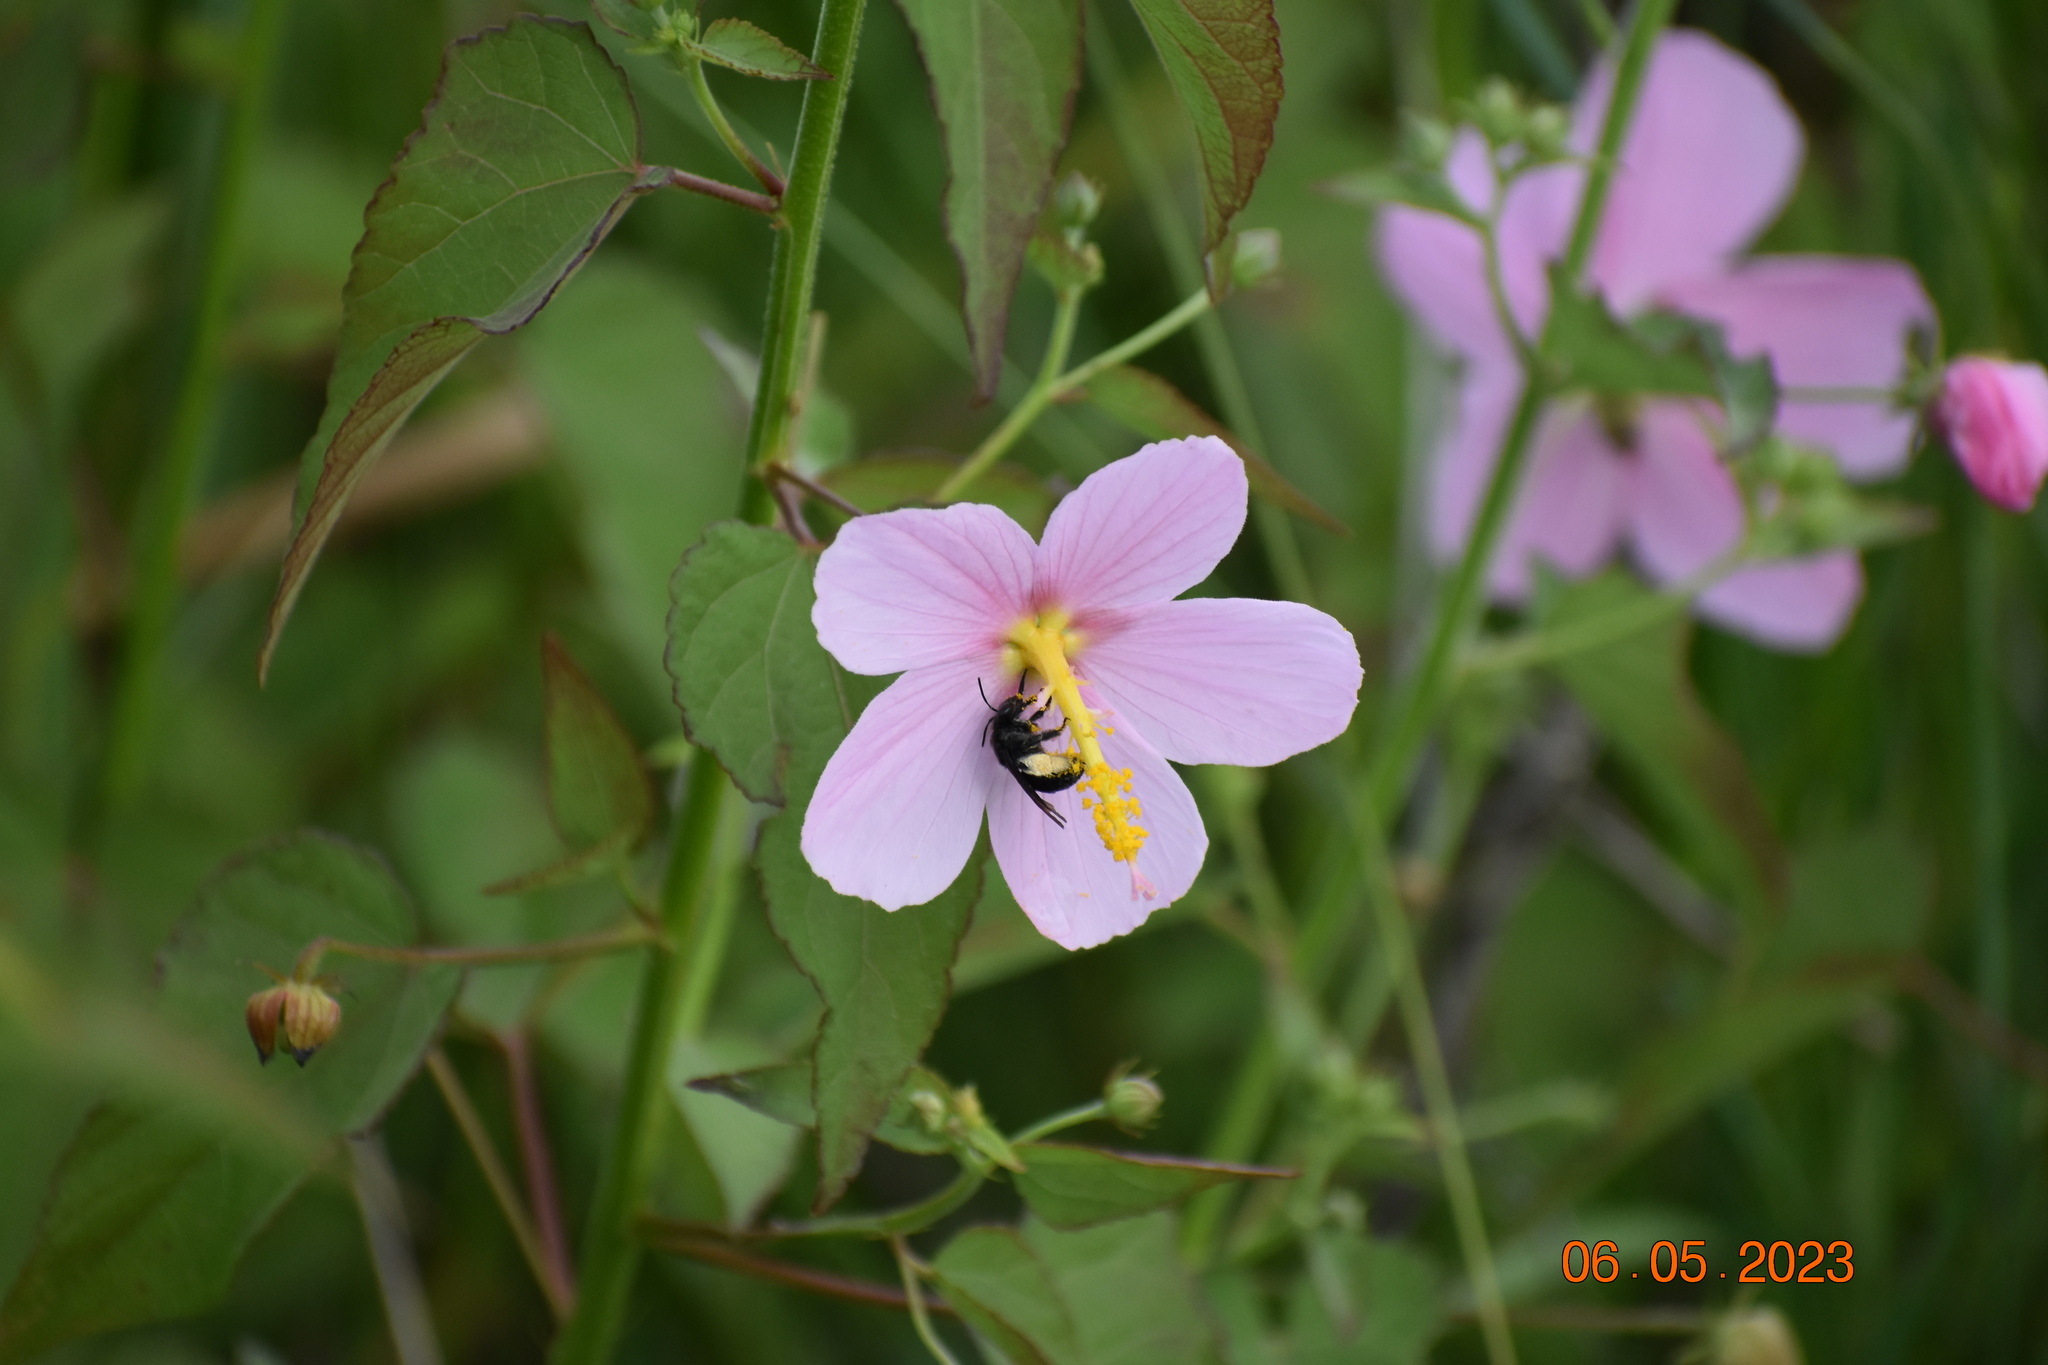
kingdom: Plantae
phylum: Tracheophyta
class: Magnoliopsida
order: Malvales
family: Malvaceae
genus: Kosteletzkya
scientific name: Kosteletzkya pentacarpos
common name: Virginia saltmarsh mallow
